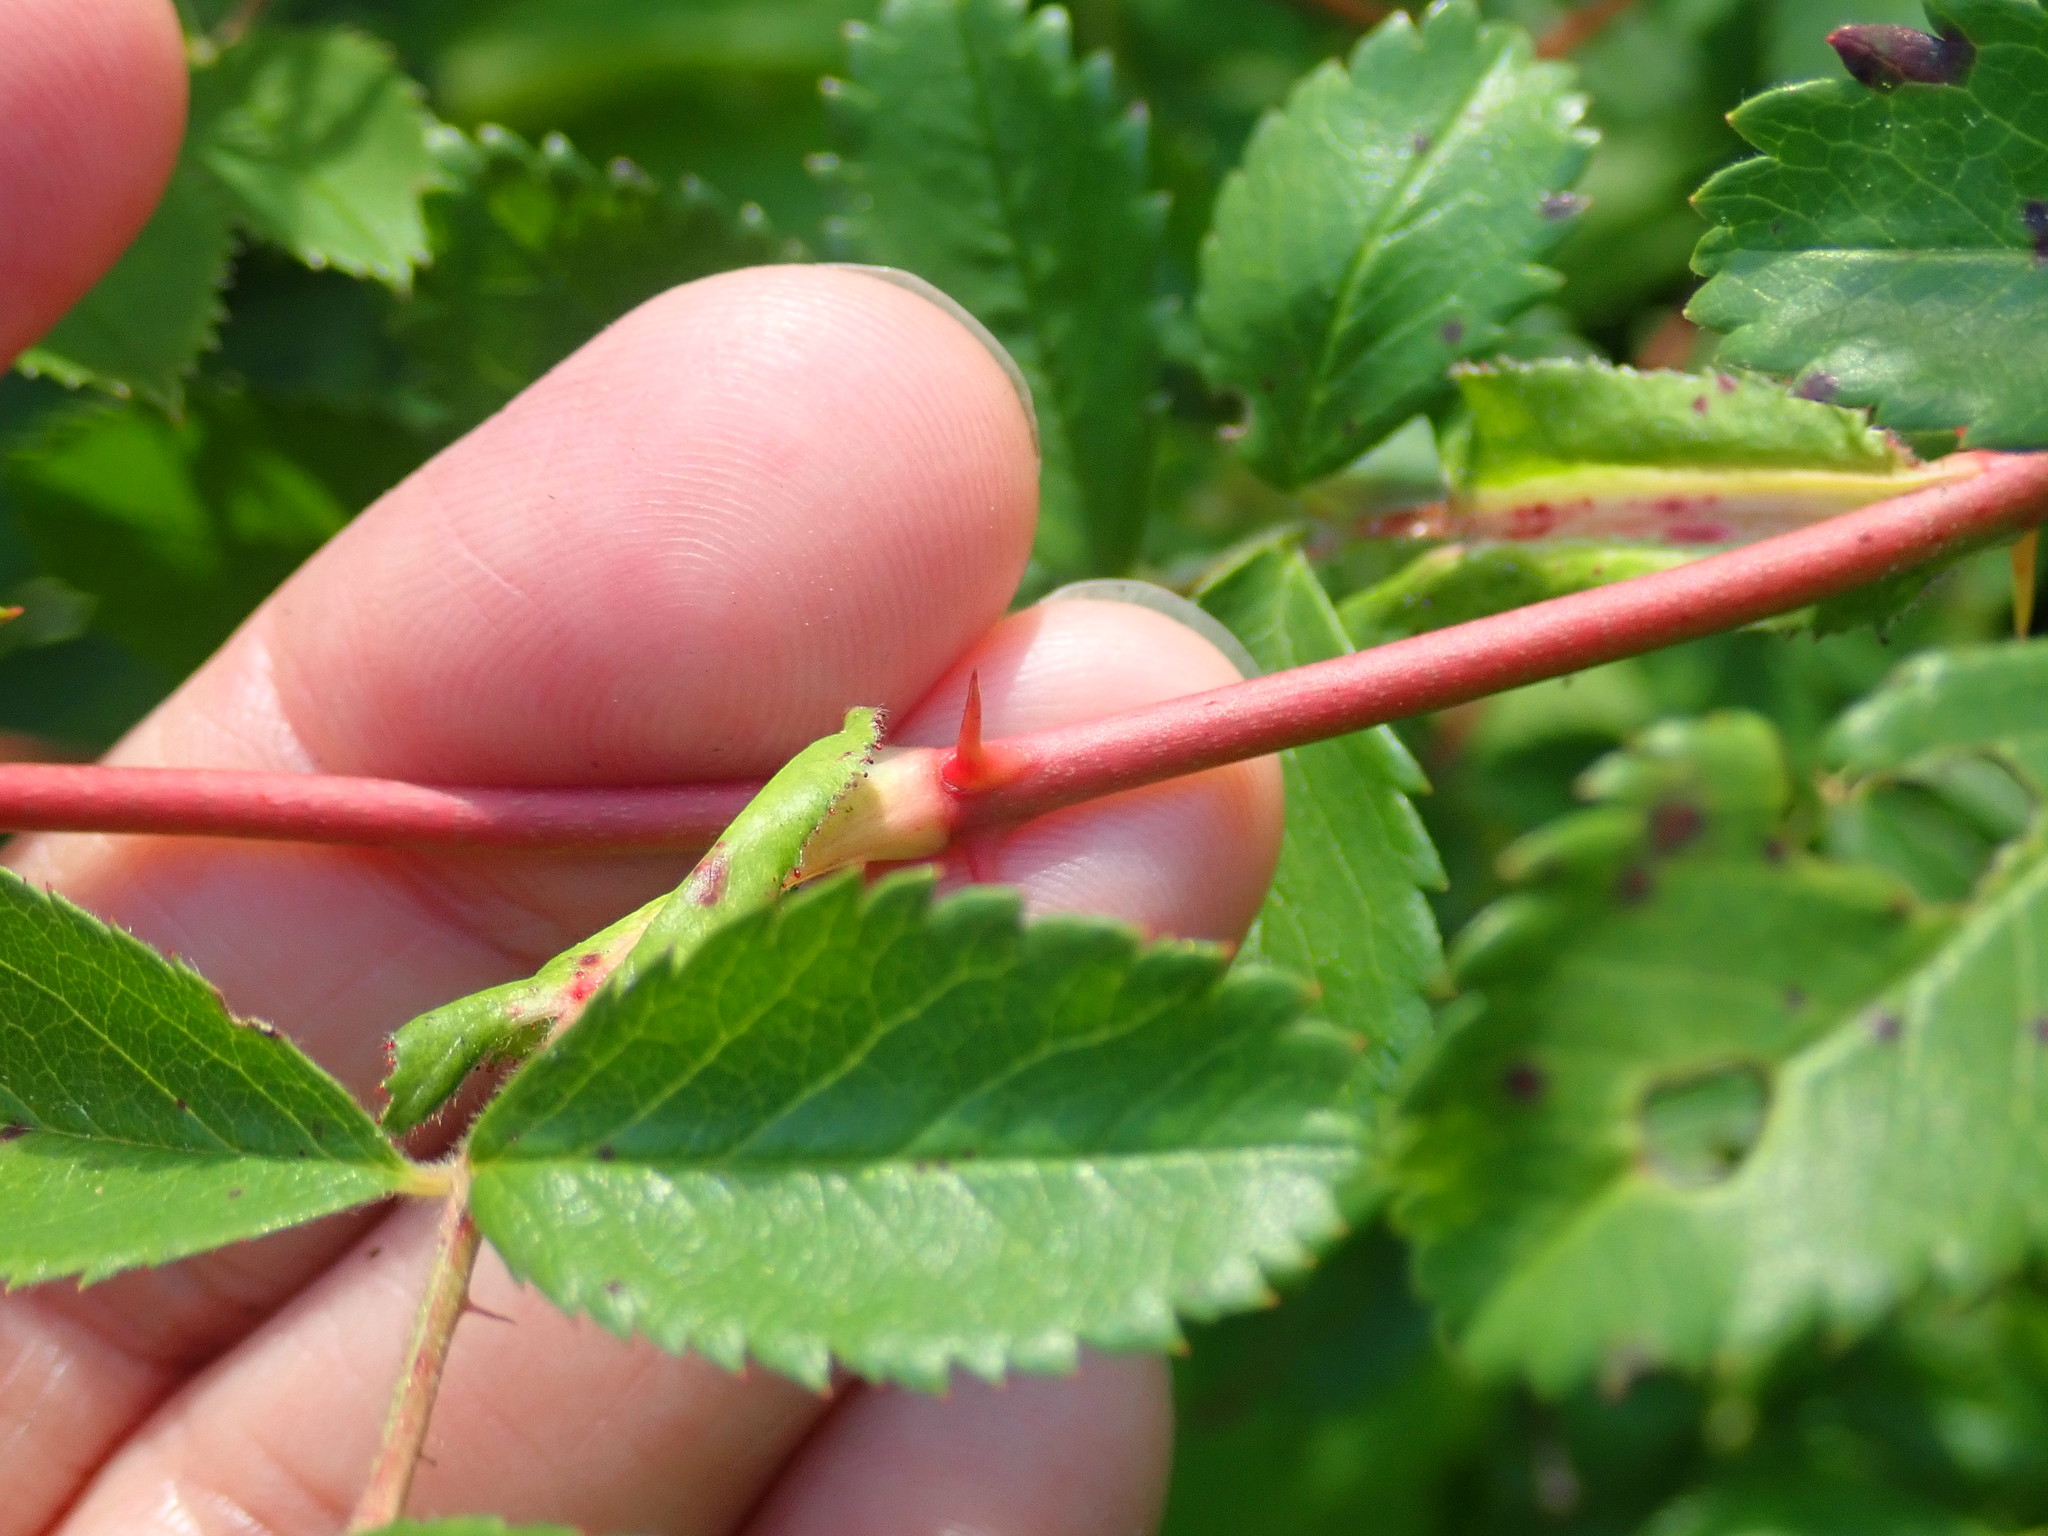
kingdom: Plantae
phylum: Tracheophyta
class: Magnoliopsida
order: Rosales
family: Rosaceae
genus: Rosa
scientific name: Rosa carolina
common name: Pasture rose
